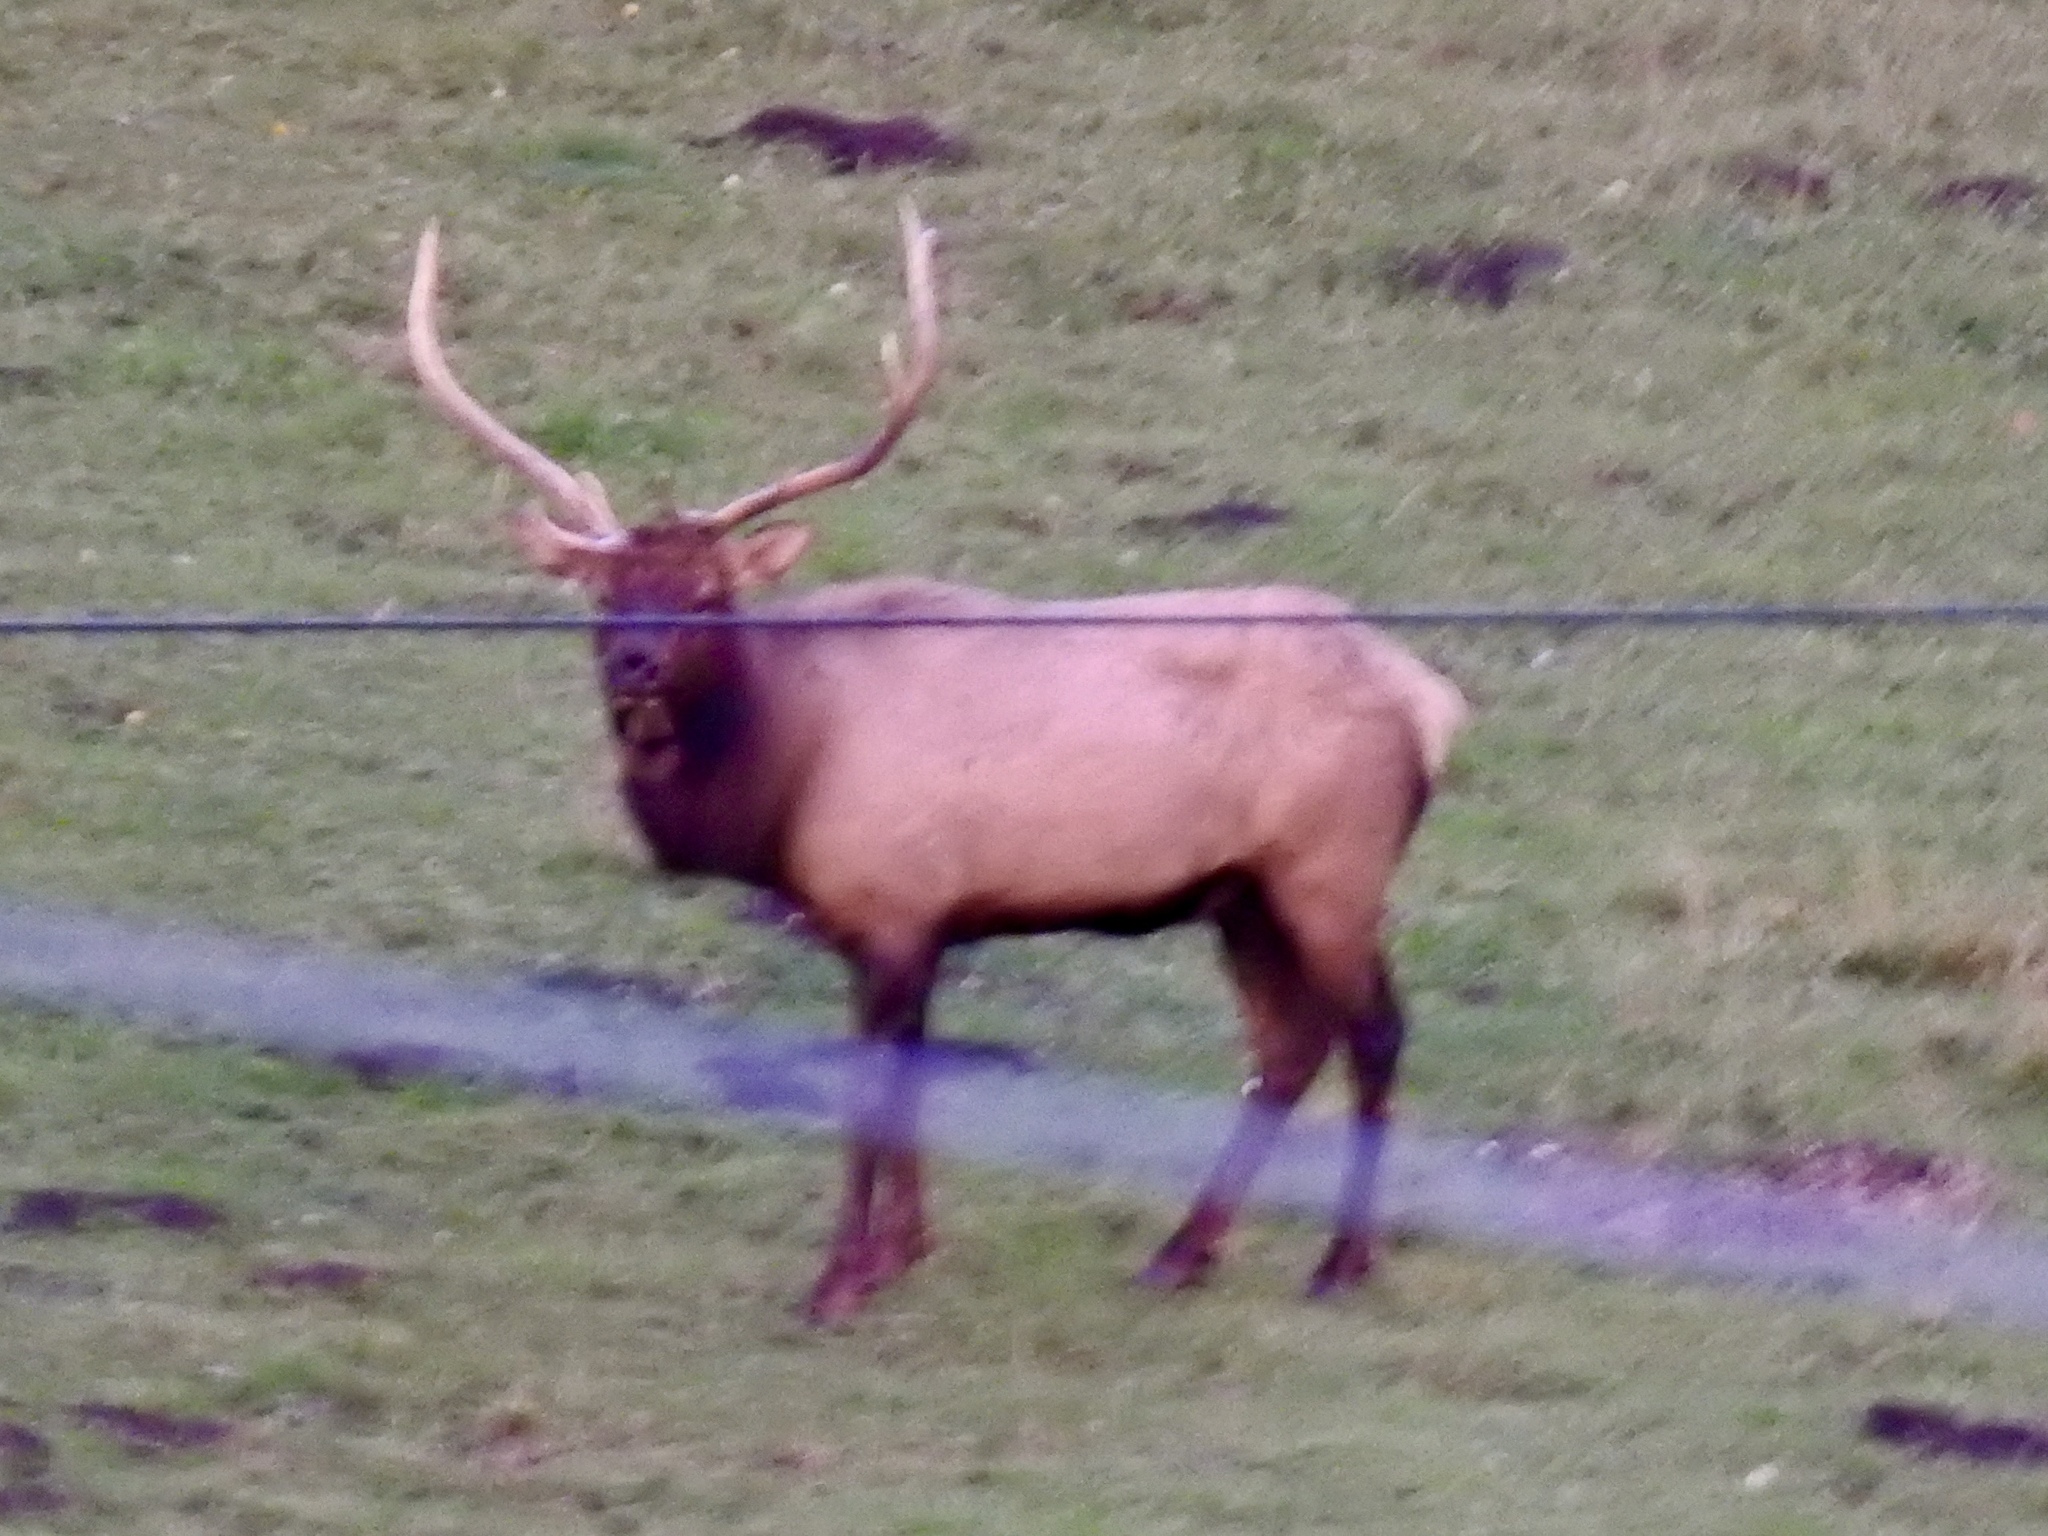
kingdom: Animalia
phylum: Chordata
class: Mammalia
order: Artiodactyla
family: Cervidae
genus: Cervus
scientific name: Cervus elaphus
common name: Red deer
